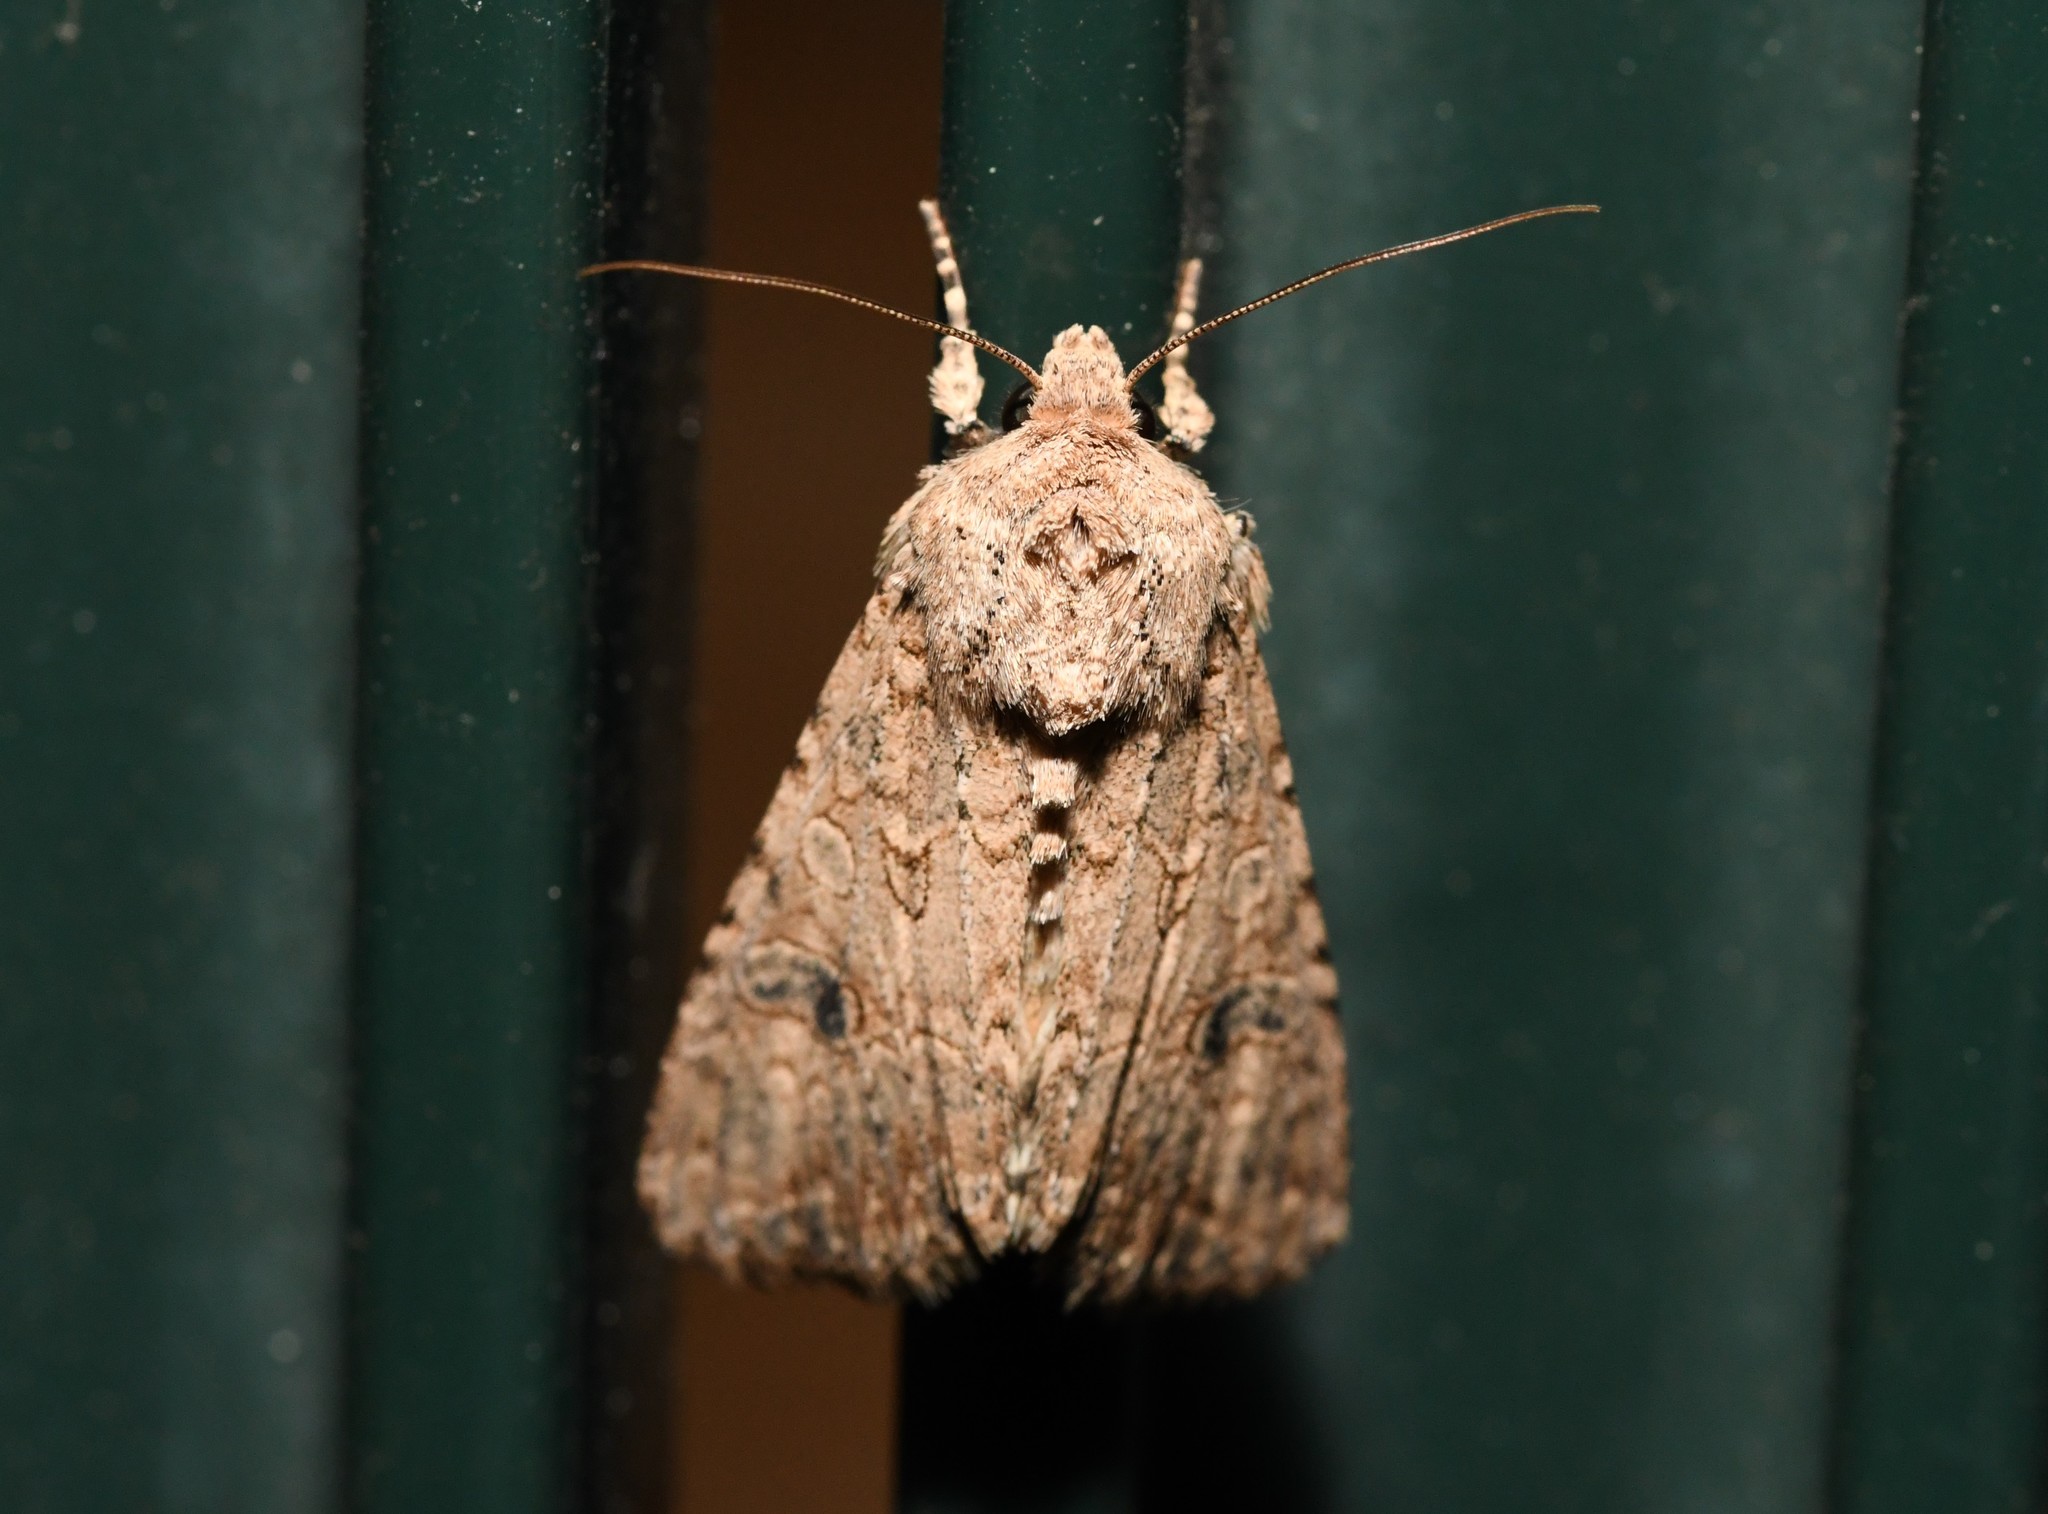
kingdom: Animalia
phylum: Arthropoda
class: Insecta
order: Lepidoptera
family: Noctuidae
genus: Anarta
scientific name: Anarta trifolii
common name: Clover cutworm moth
